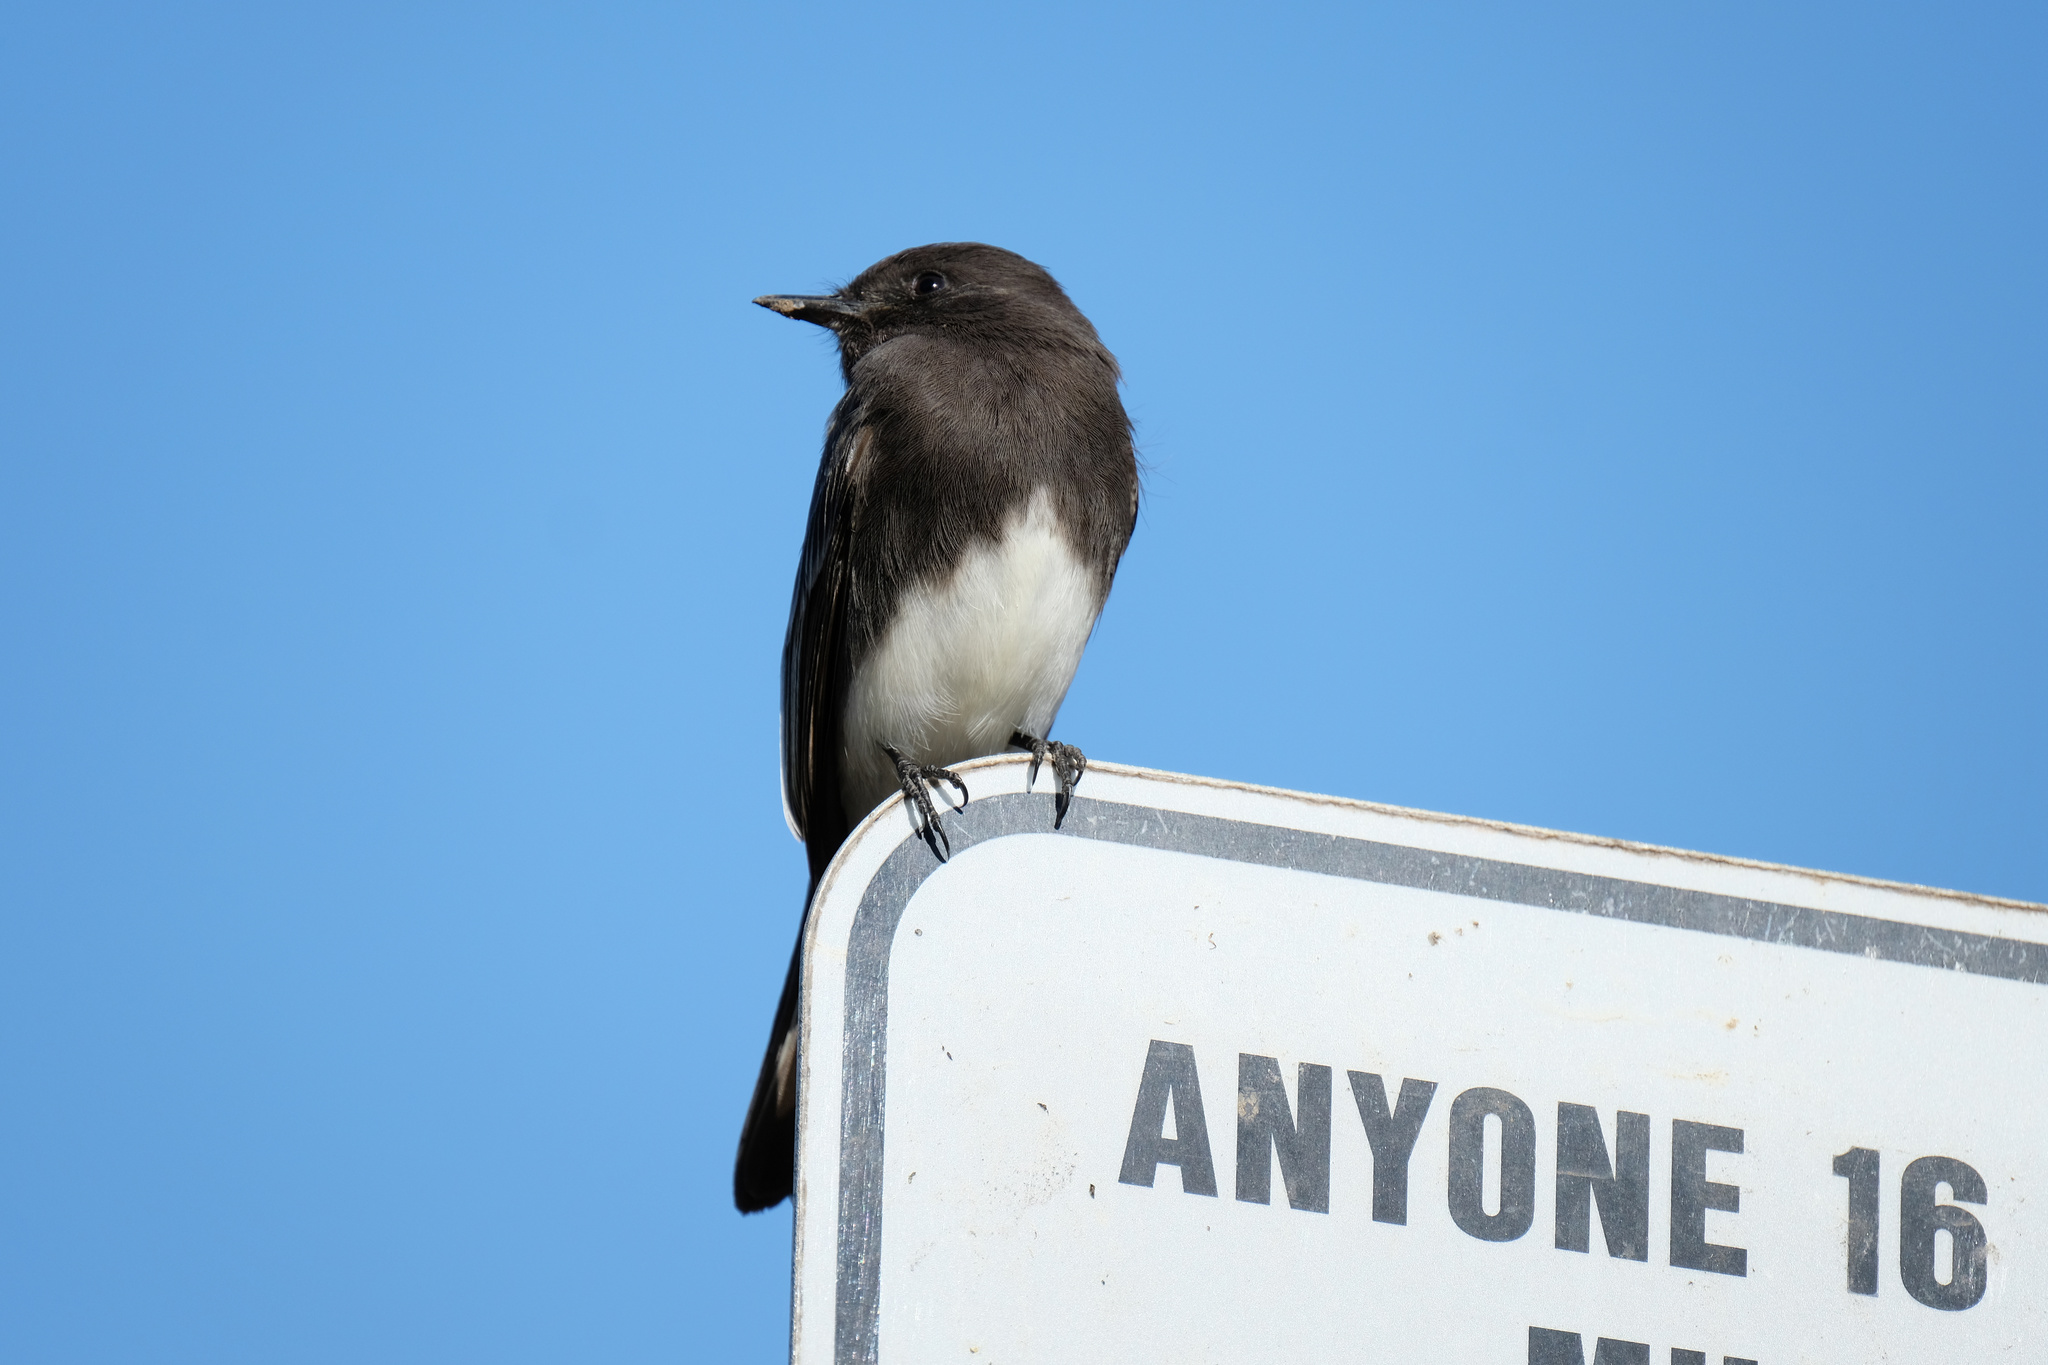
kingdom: Animalia
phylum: Chordata
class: Aves
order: Passeriformes
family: Tyrannidae
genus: Sayornis
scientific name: Sayornis nigricans
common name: Black phoebe
